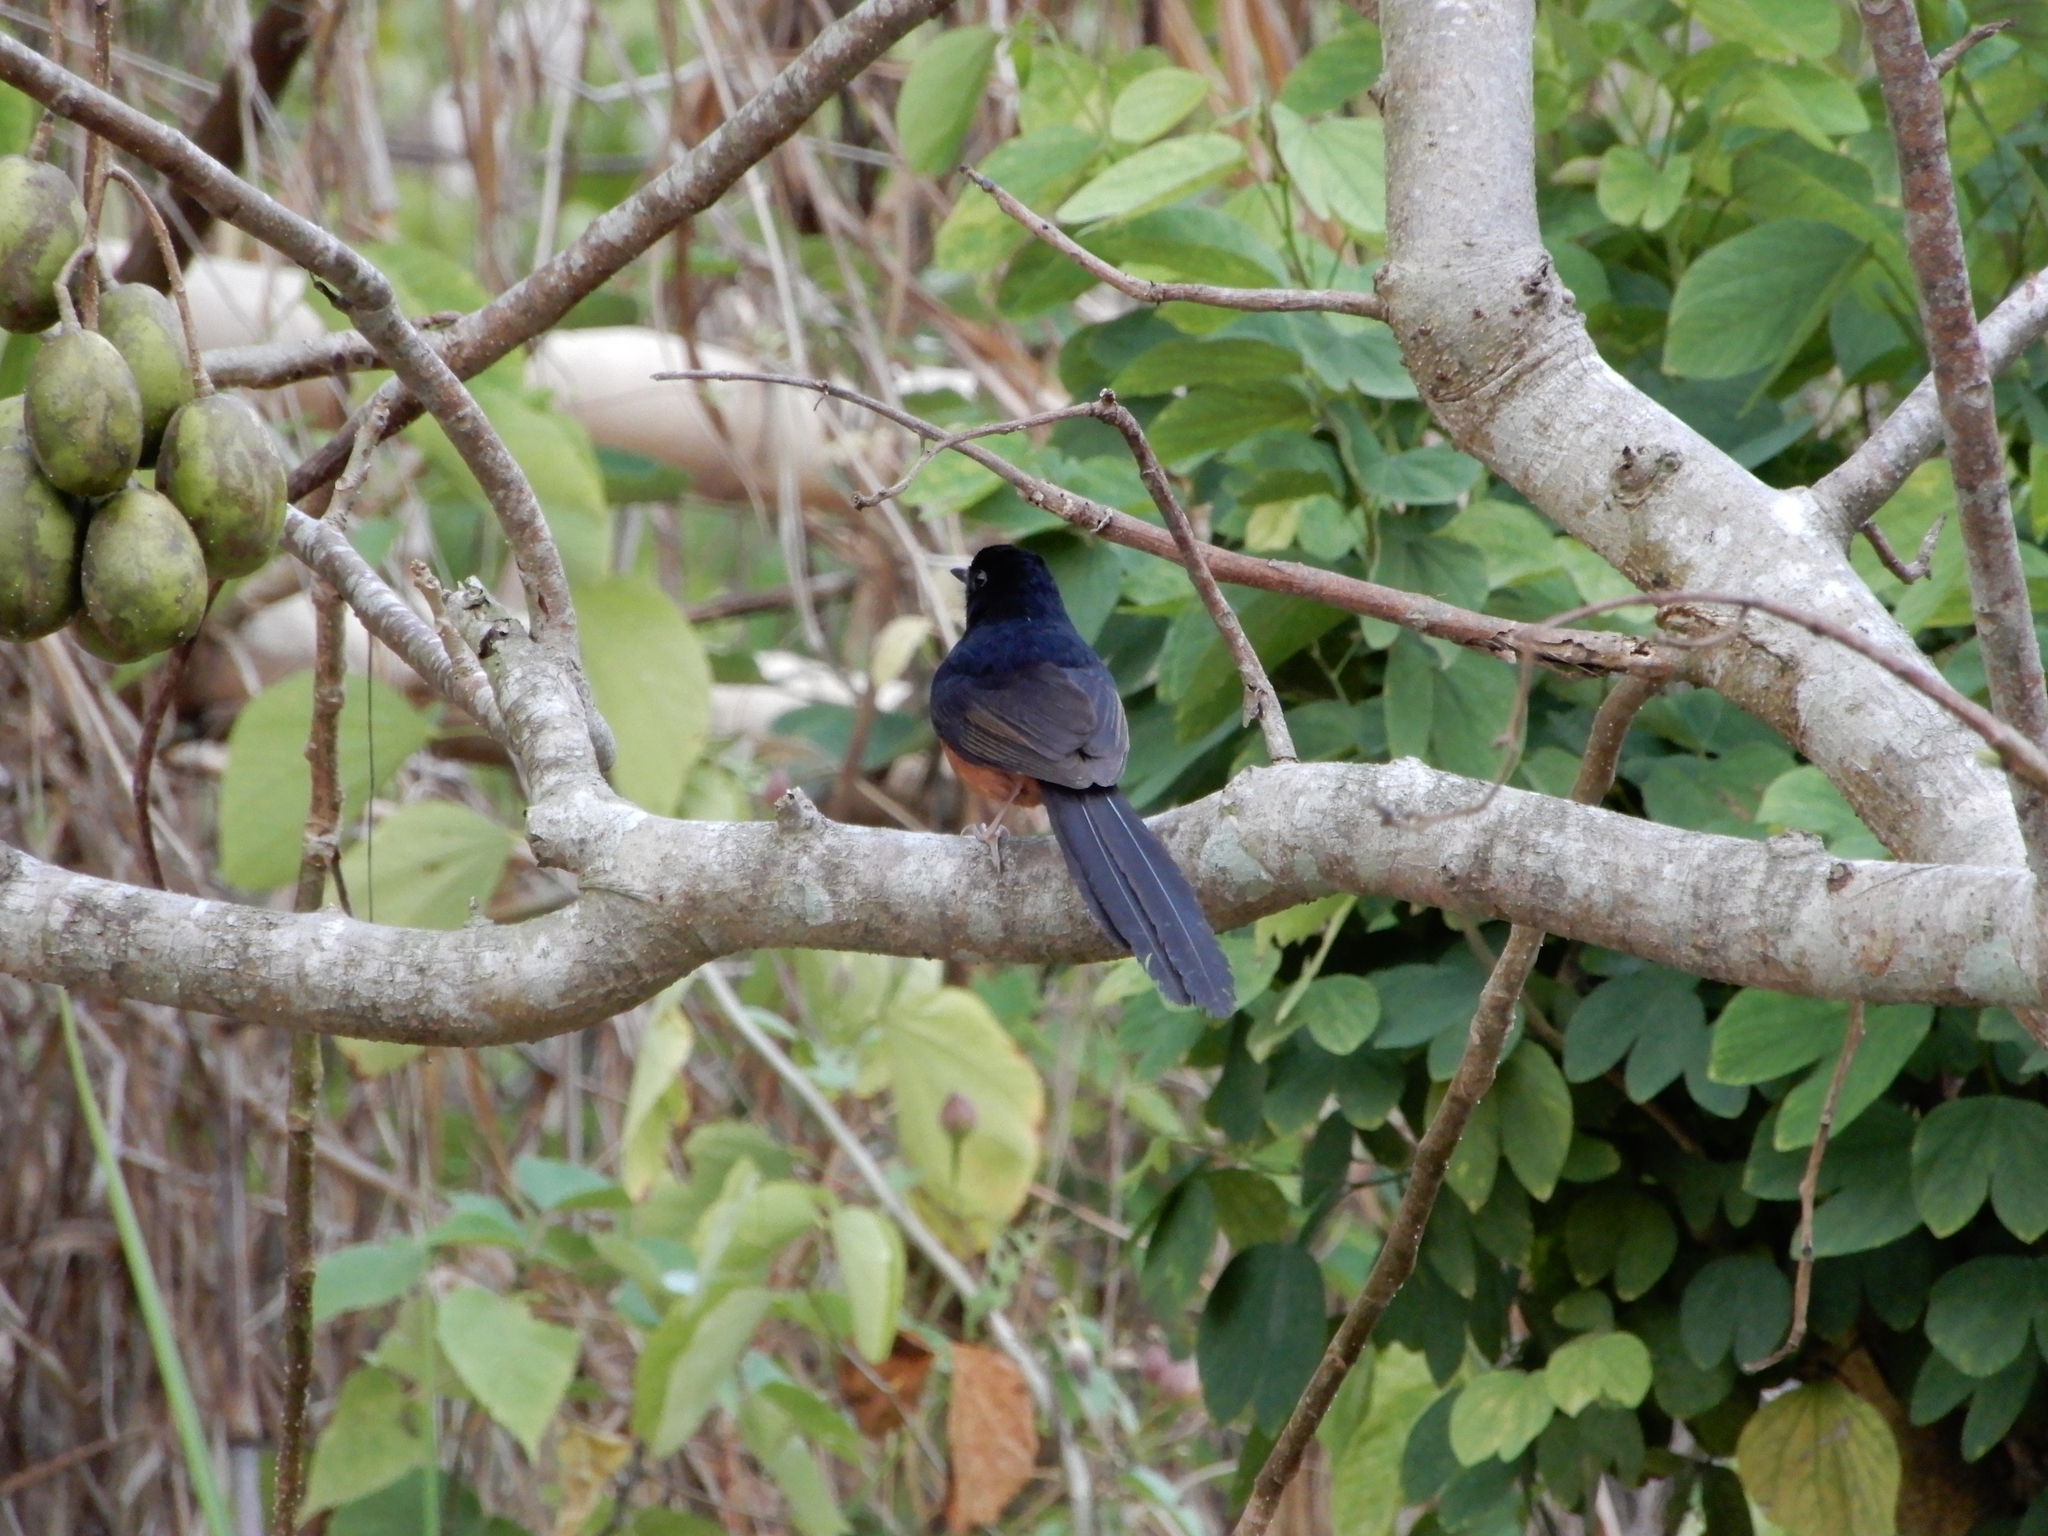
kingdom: Animalia
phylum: Chordata
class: Aves
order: Passeriformes
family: Muscicapidae
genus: Copsychus
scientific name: Copsychus malabaricus
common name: White-rumped shama
